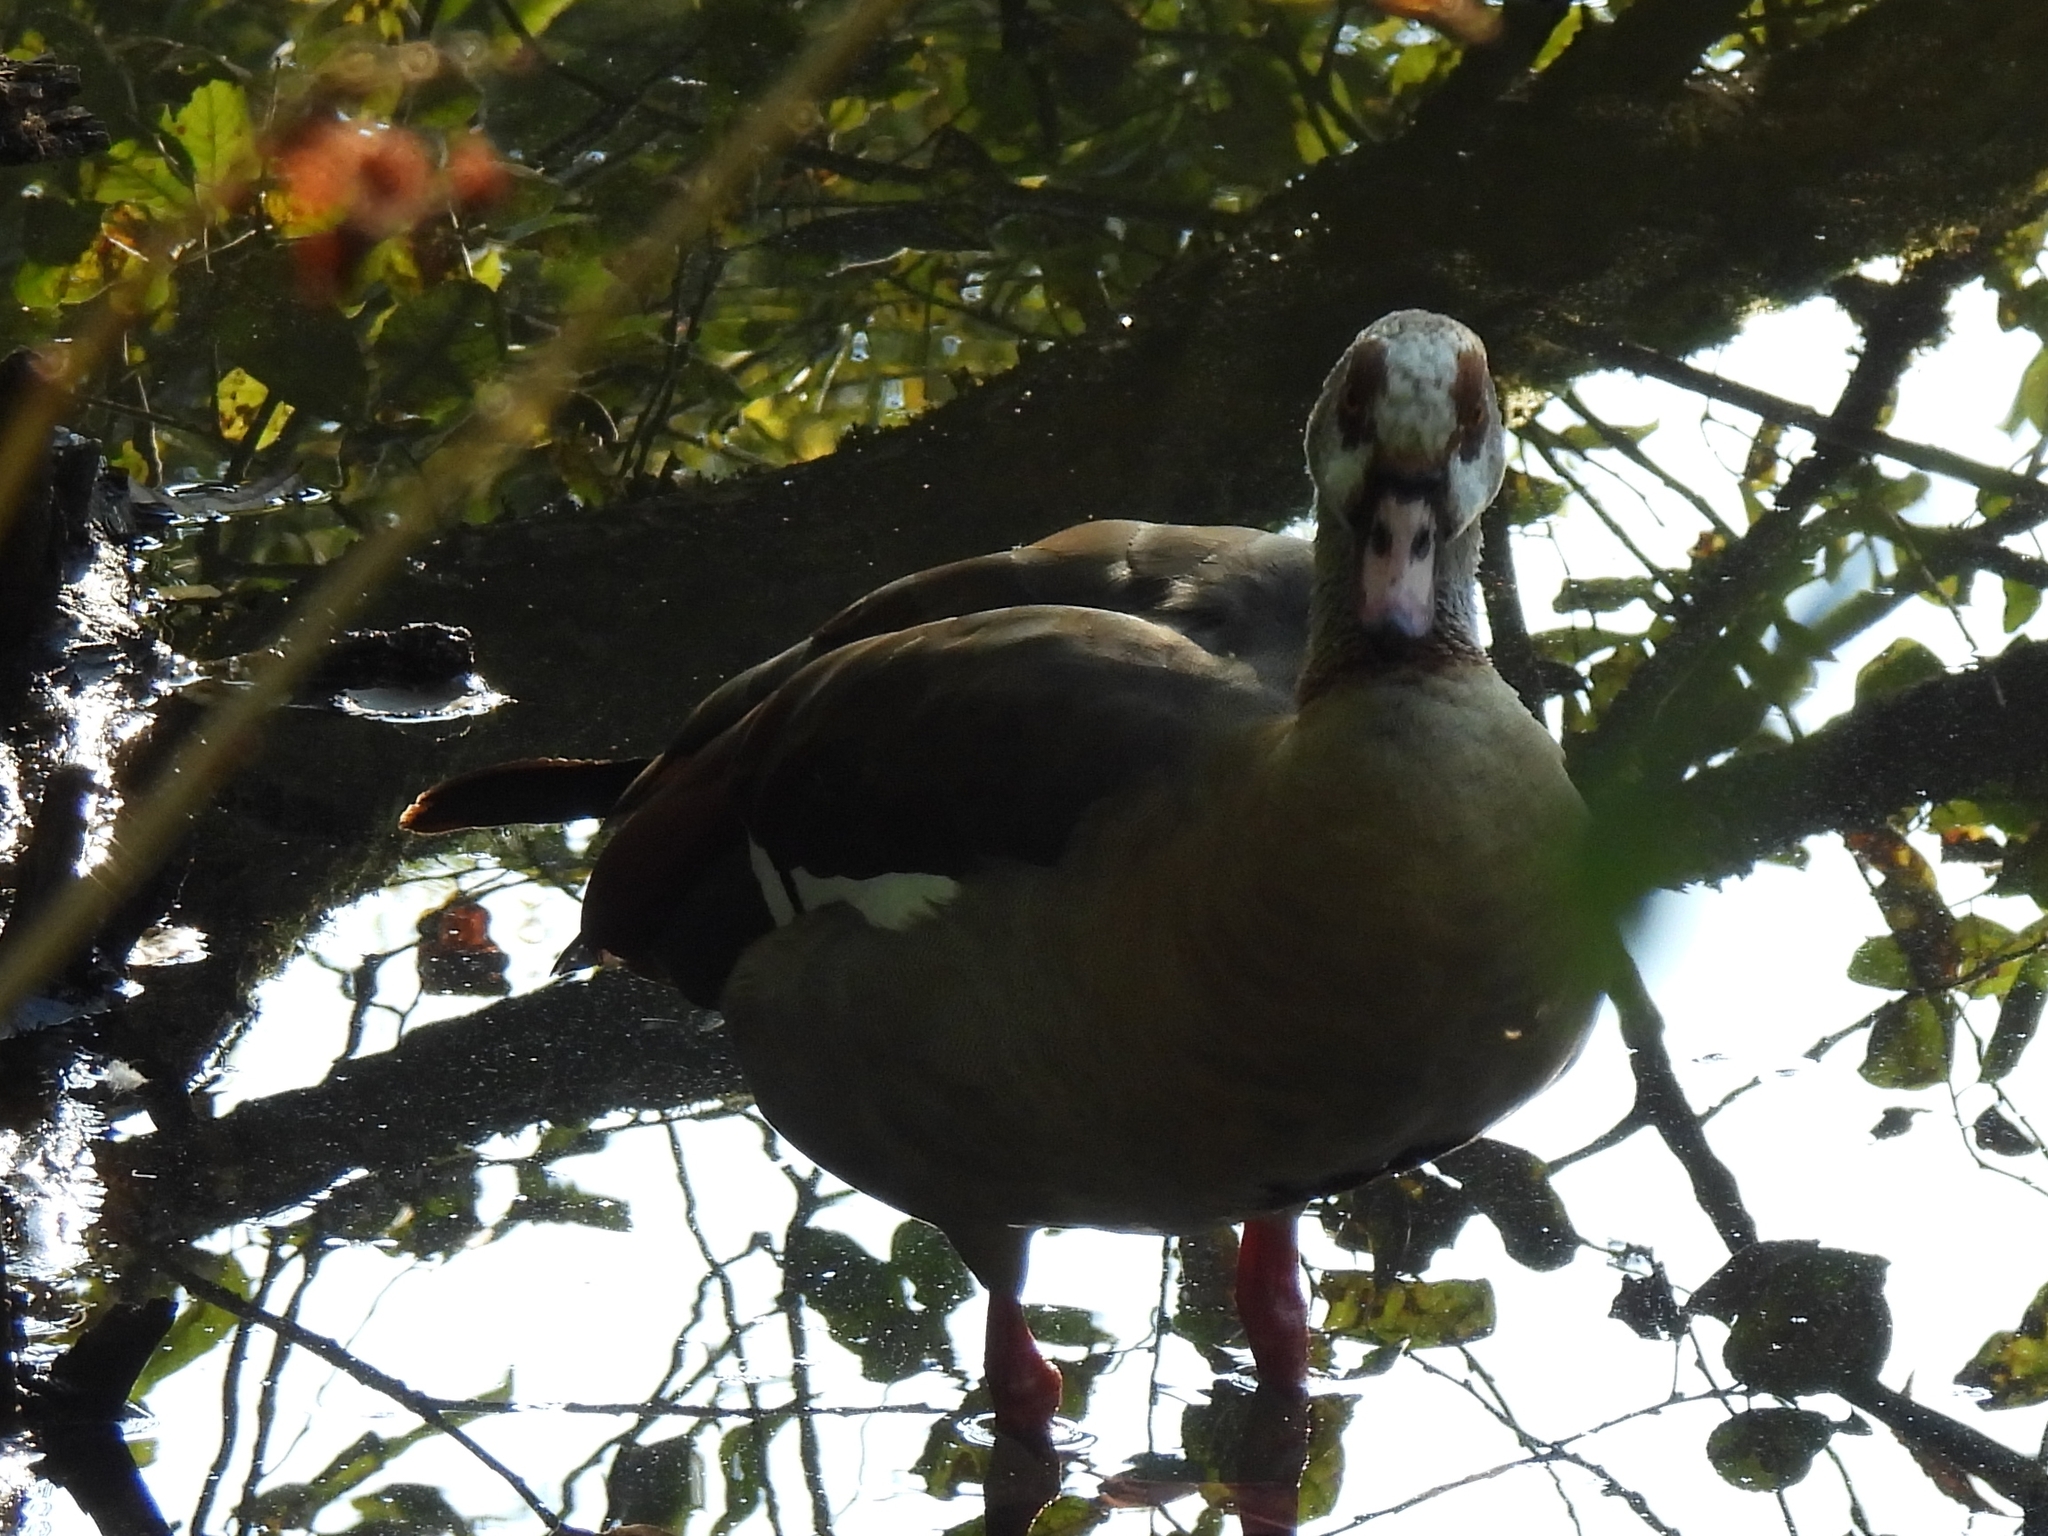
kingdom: Animalia
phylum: Chordata
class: Aves
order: Anseriformes
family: Anatidae
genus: Alopochen
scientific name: Alopochen aegyptiaca
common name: Egyptian goose
